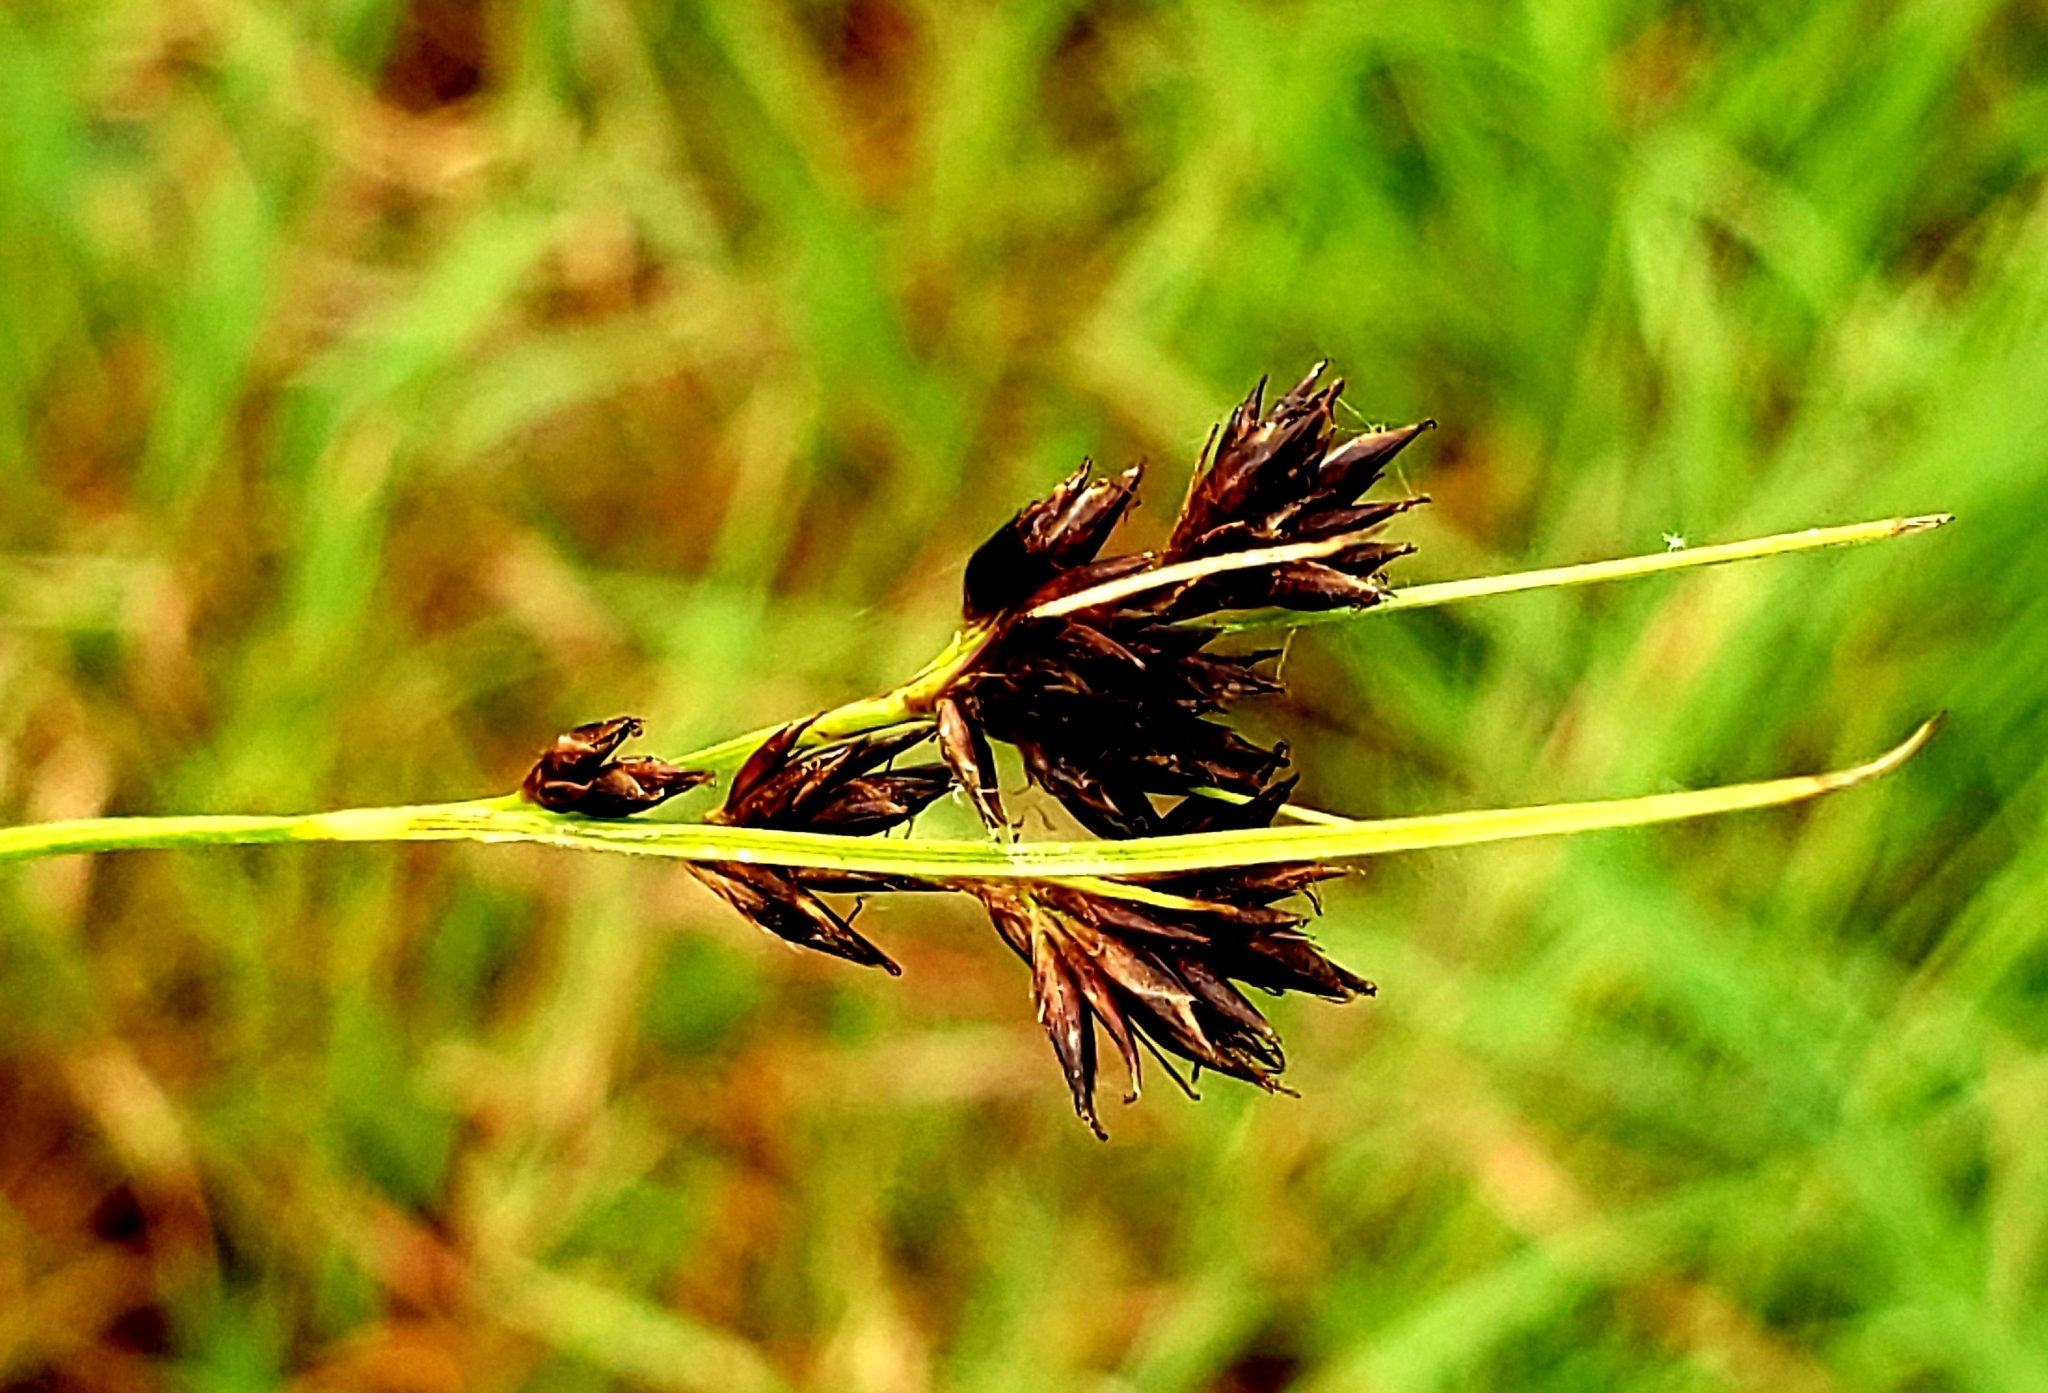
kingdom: Plantae
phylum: Tracheophyta
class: Liliopsida
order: Poales
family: Cyperaceae
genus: Rhynchospora
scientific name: Rhynchospora capitellata
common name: Brownish beaksedge
